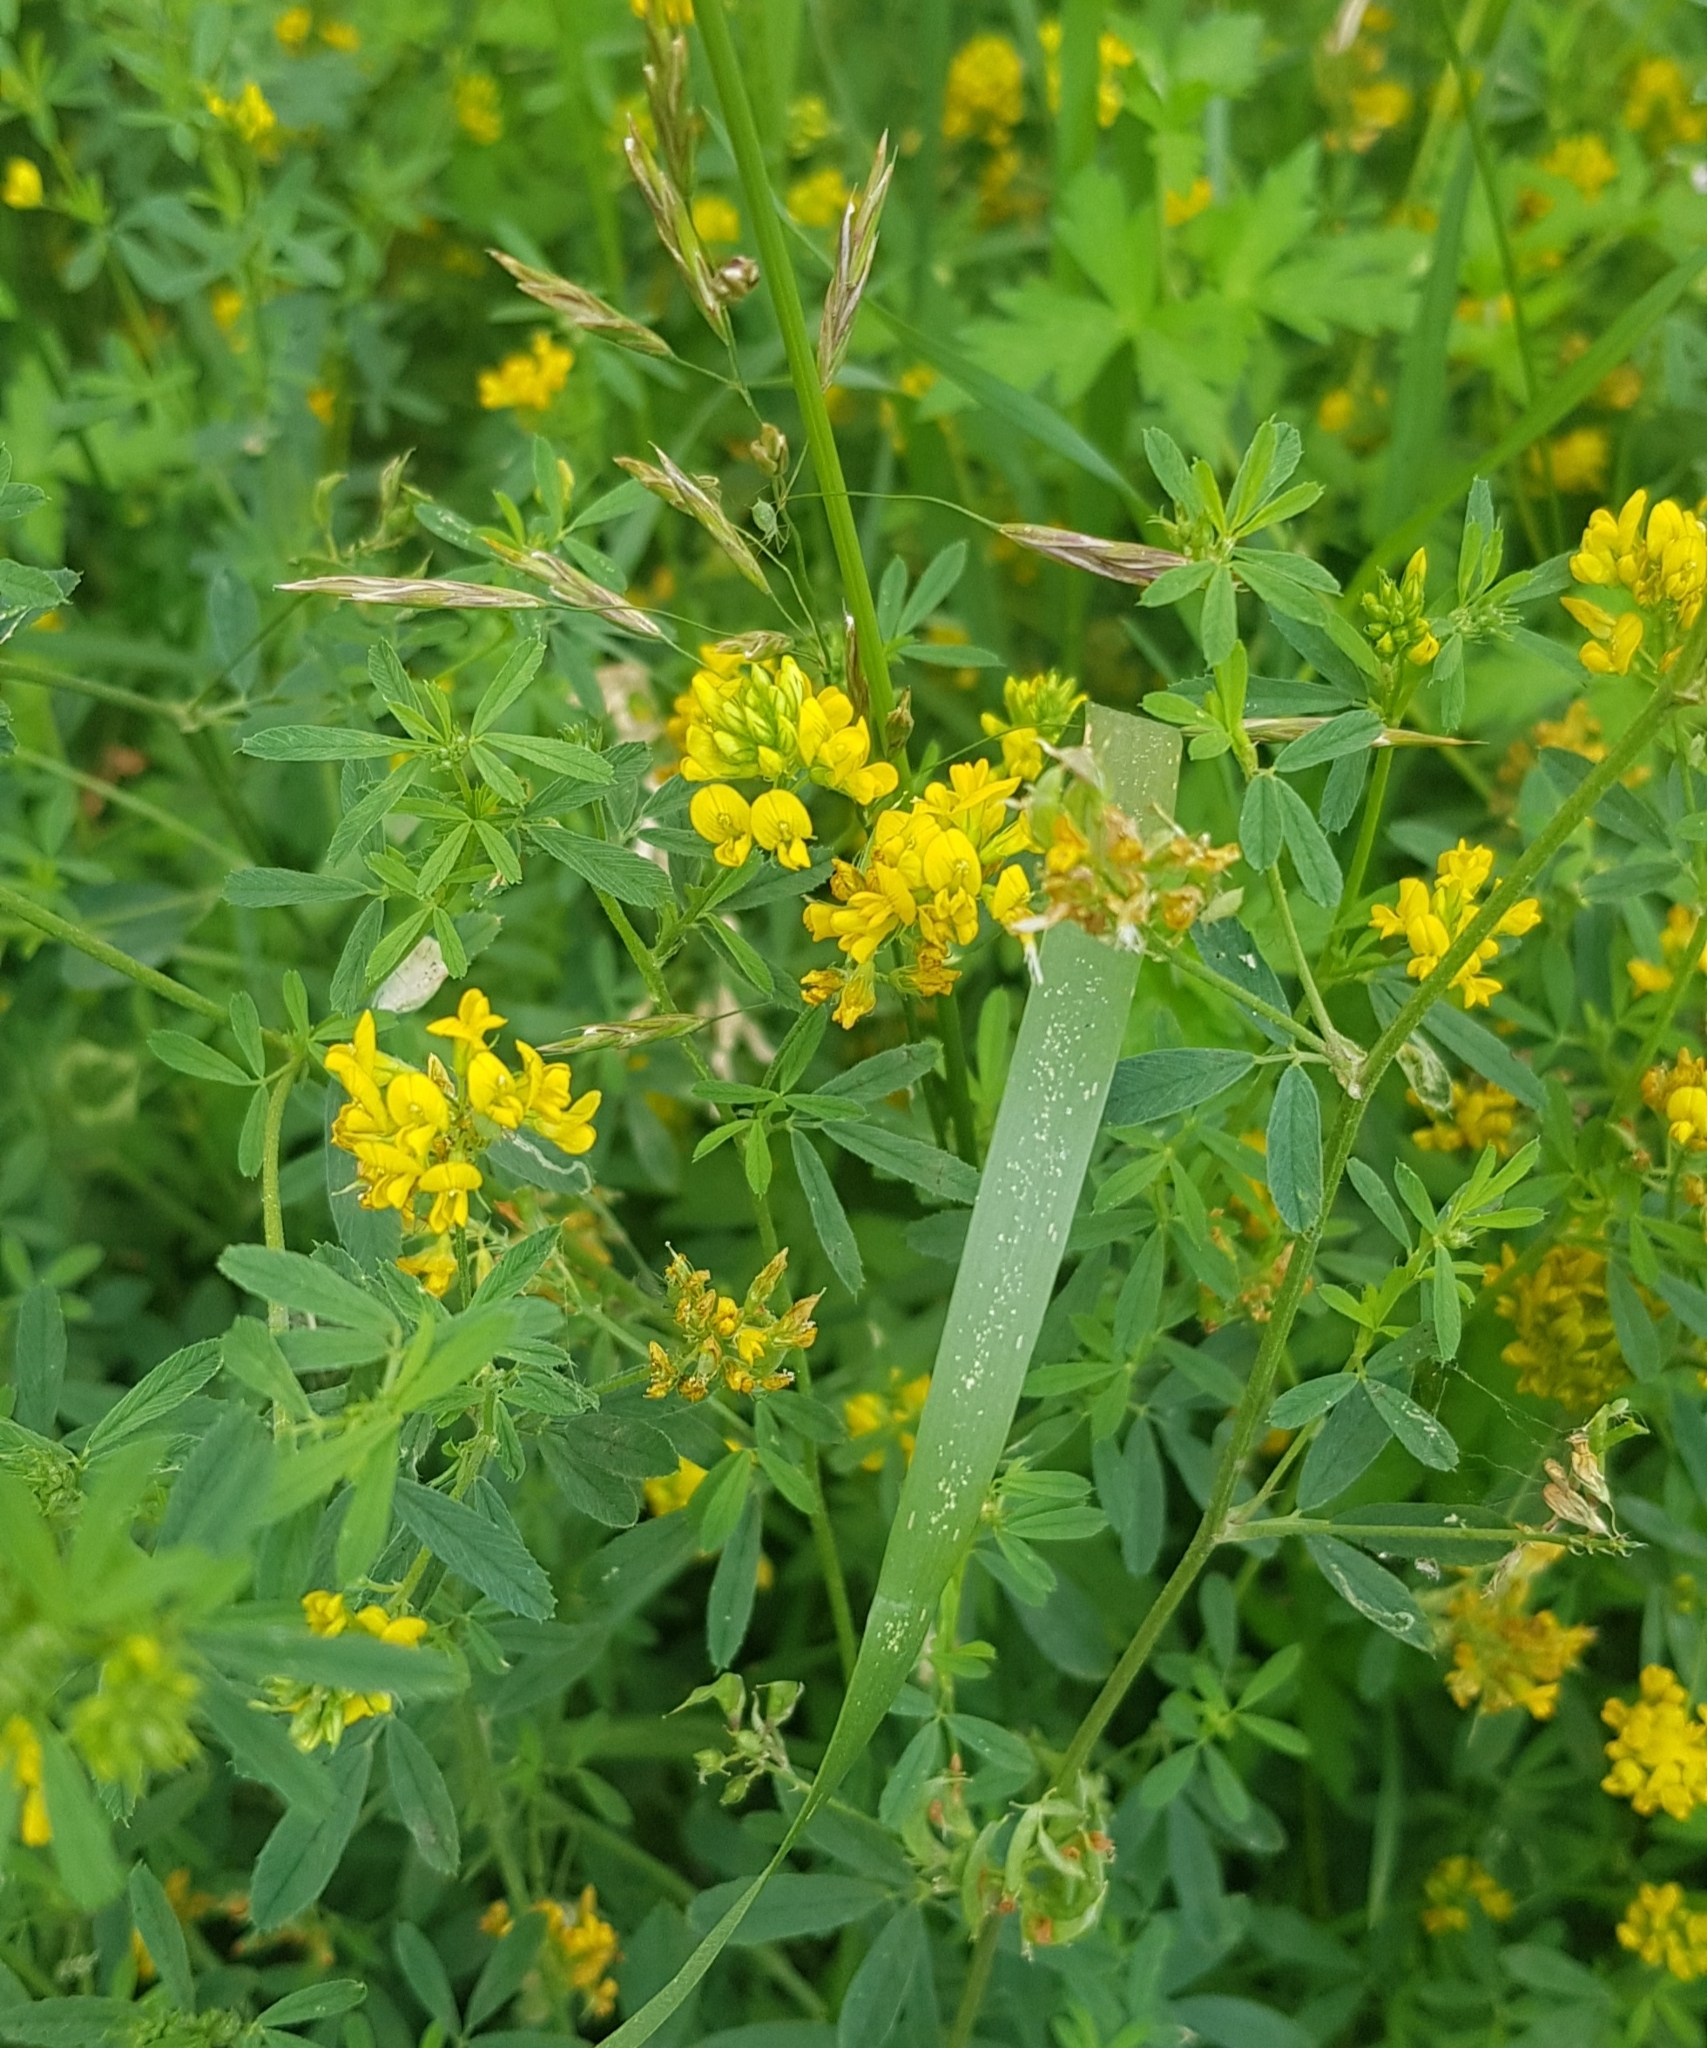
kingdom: Plantae
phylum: Tracheophyta
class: Magnoliopsida
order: Fabales
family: Fabaceae
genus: Medicago
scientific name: Medicago falcata
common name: Sickle medick
